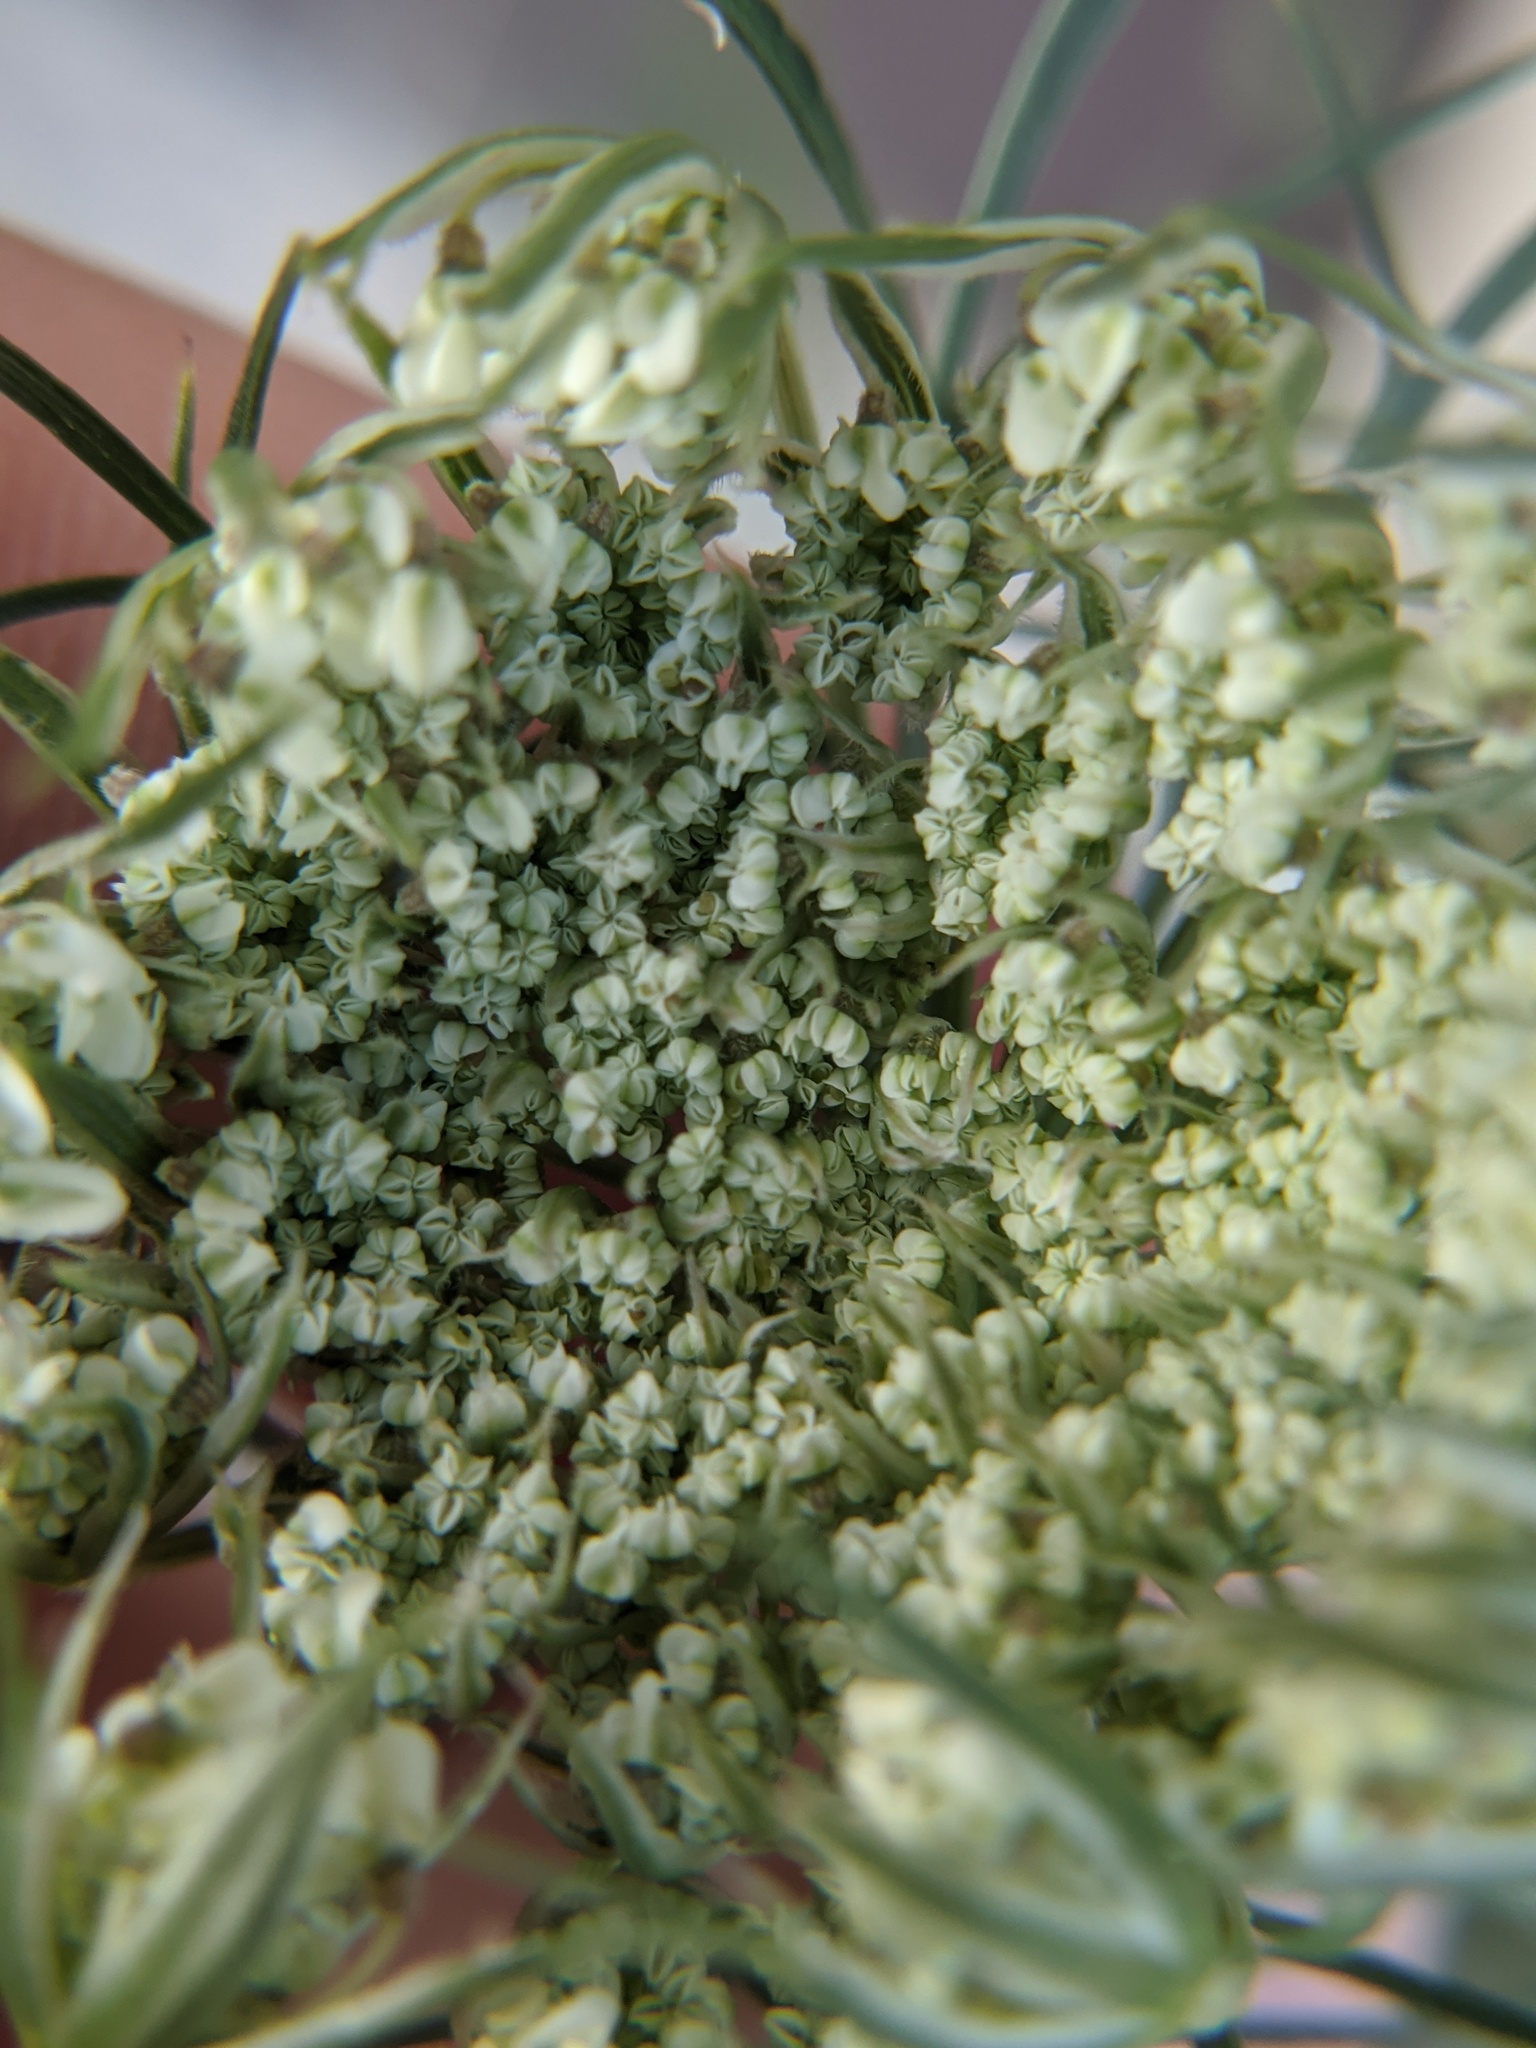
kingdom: Plantae
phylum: Tracheophyta
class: Magnoliopsida
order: Apiales
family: Apiaceae
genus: Daucus
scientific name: Daucus carota
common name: Wild carrot
